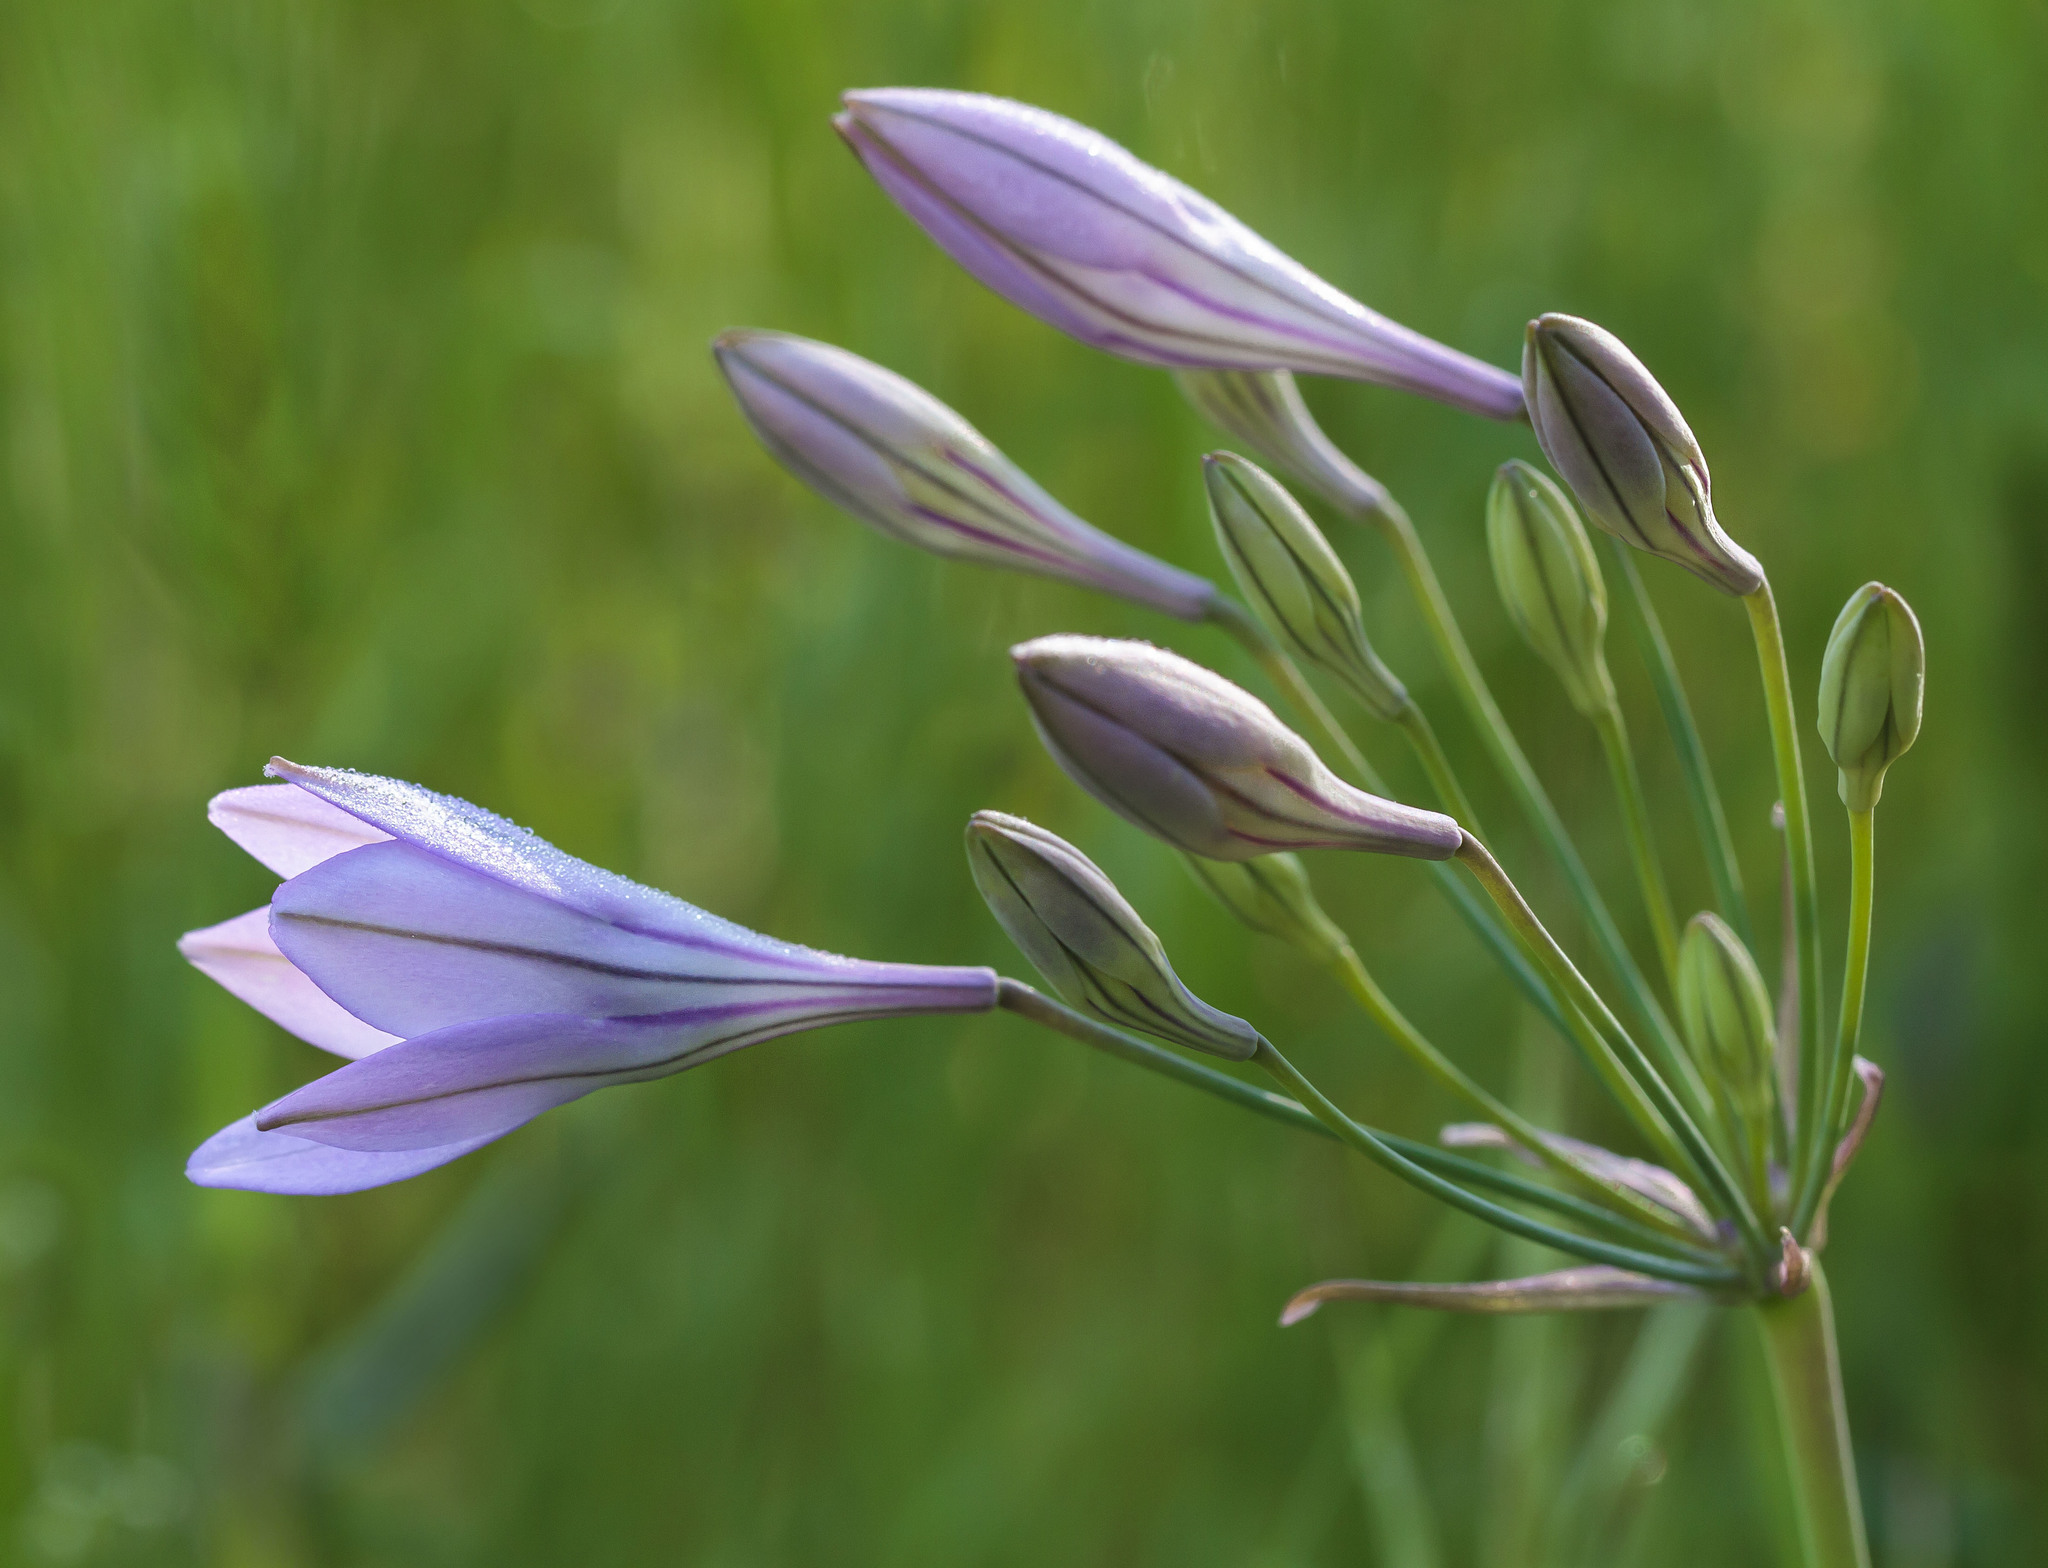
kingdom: Plantae
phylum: Tracheophyta
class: Liliopsida
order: Asparagales
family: Asparagaceae
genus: Triteleia
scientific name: Triteleia laxa
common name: Triplet-lily
